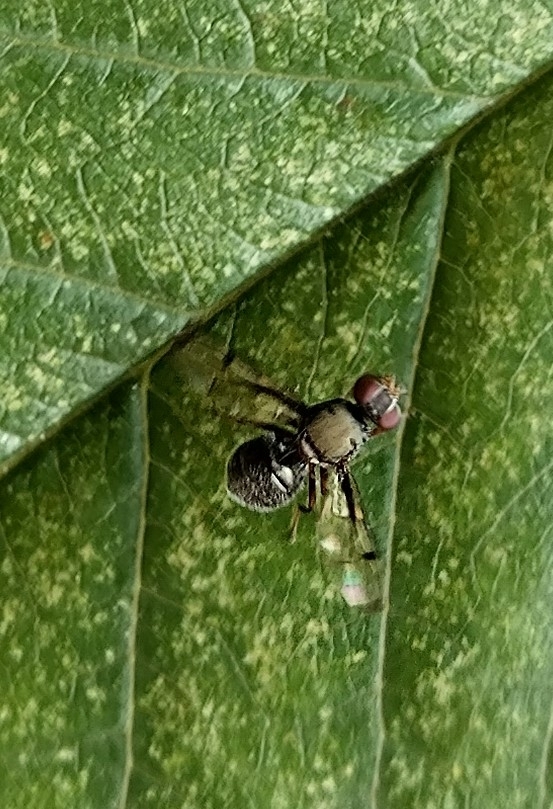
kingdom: Animalia
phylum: Arthropoda
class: Insecta
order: Diptera
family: Platystomatidae
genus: Pogonortalis
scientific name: Pogonortalis doclea
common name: Boatman fly
